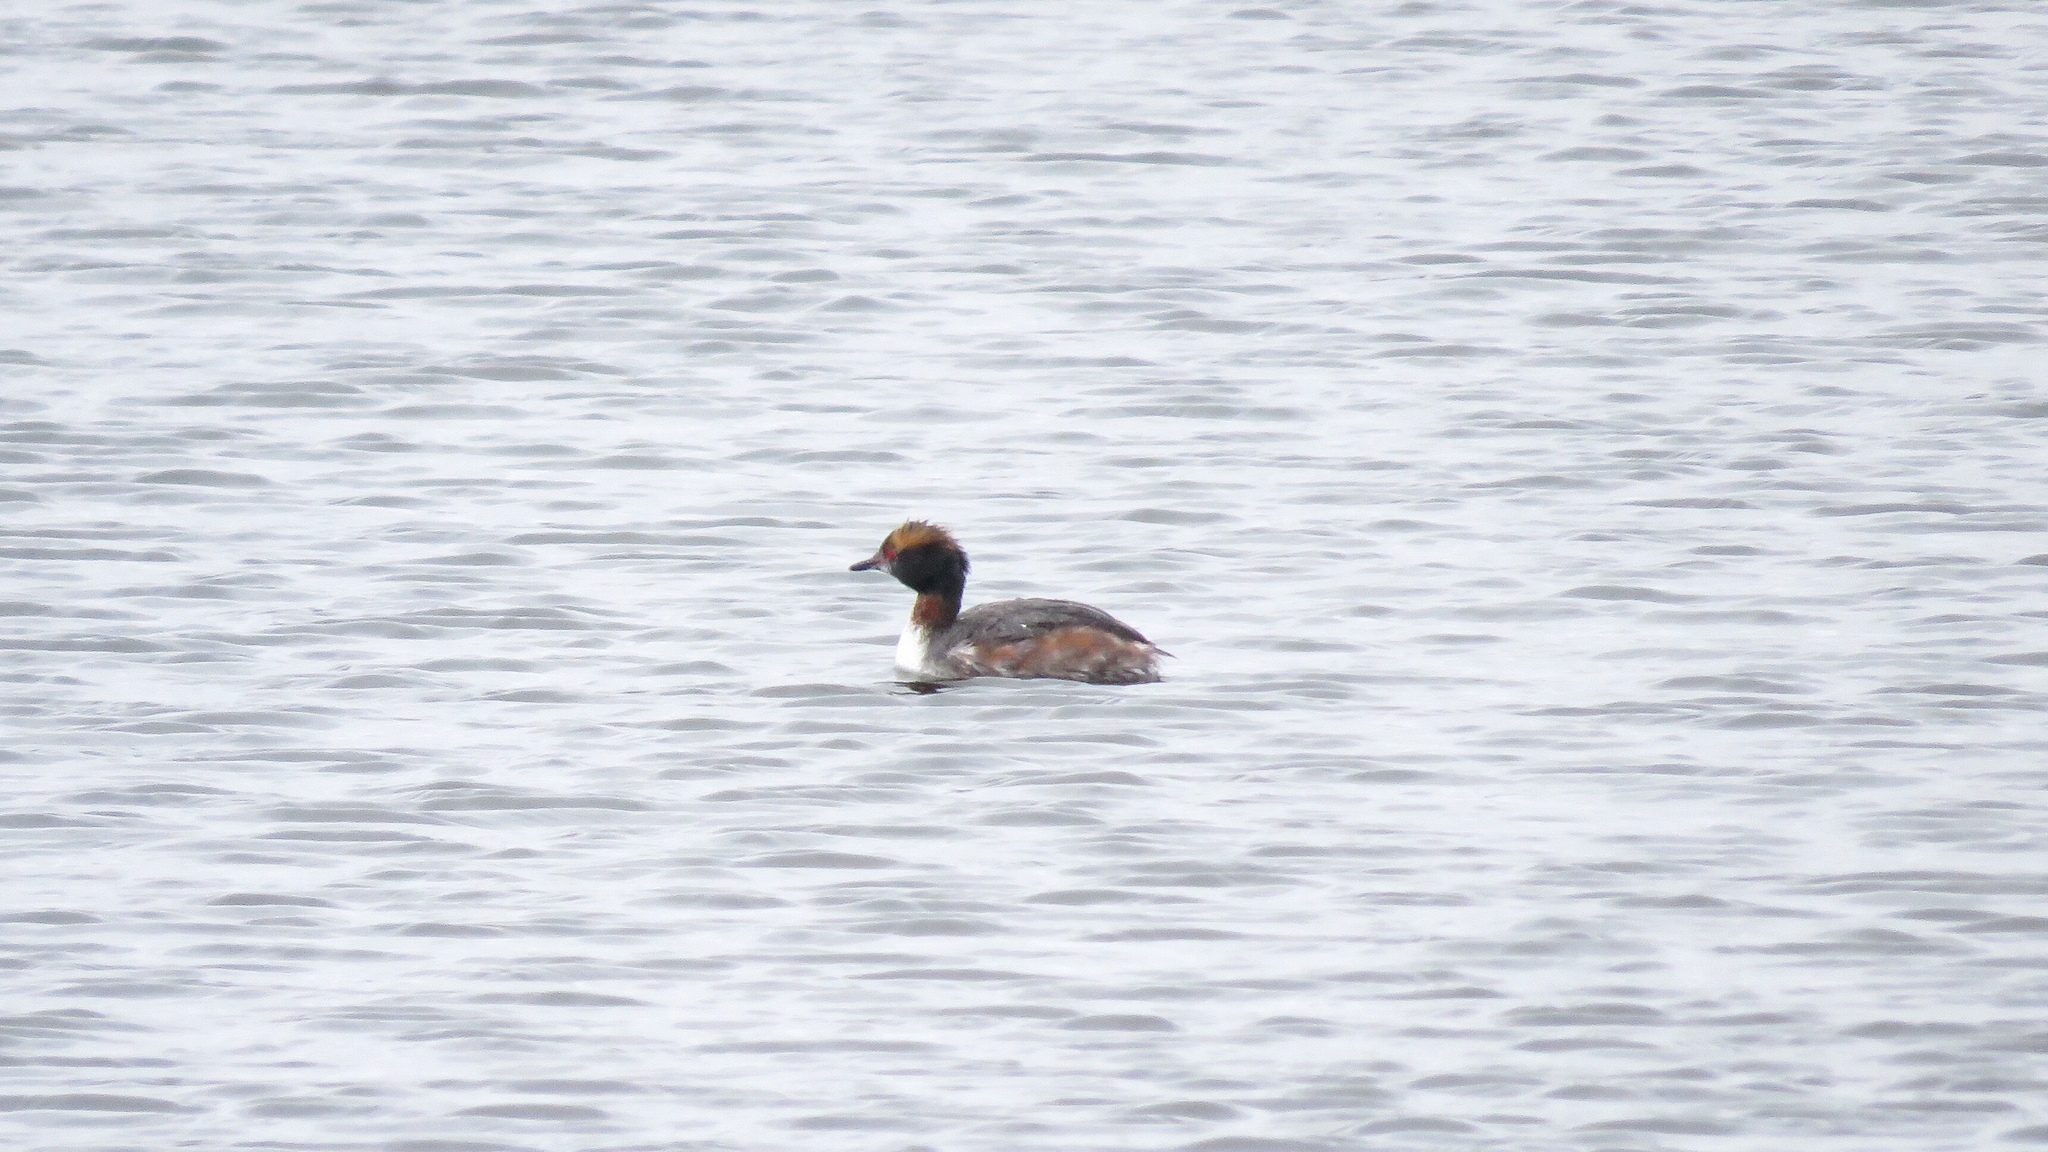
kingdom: Animalia
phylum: Chordata
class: Aves
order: Podicipediformes
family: Podicipedidae
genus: Podiceps
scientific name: Podiceps auritus
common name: Horned grebe
